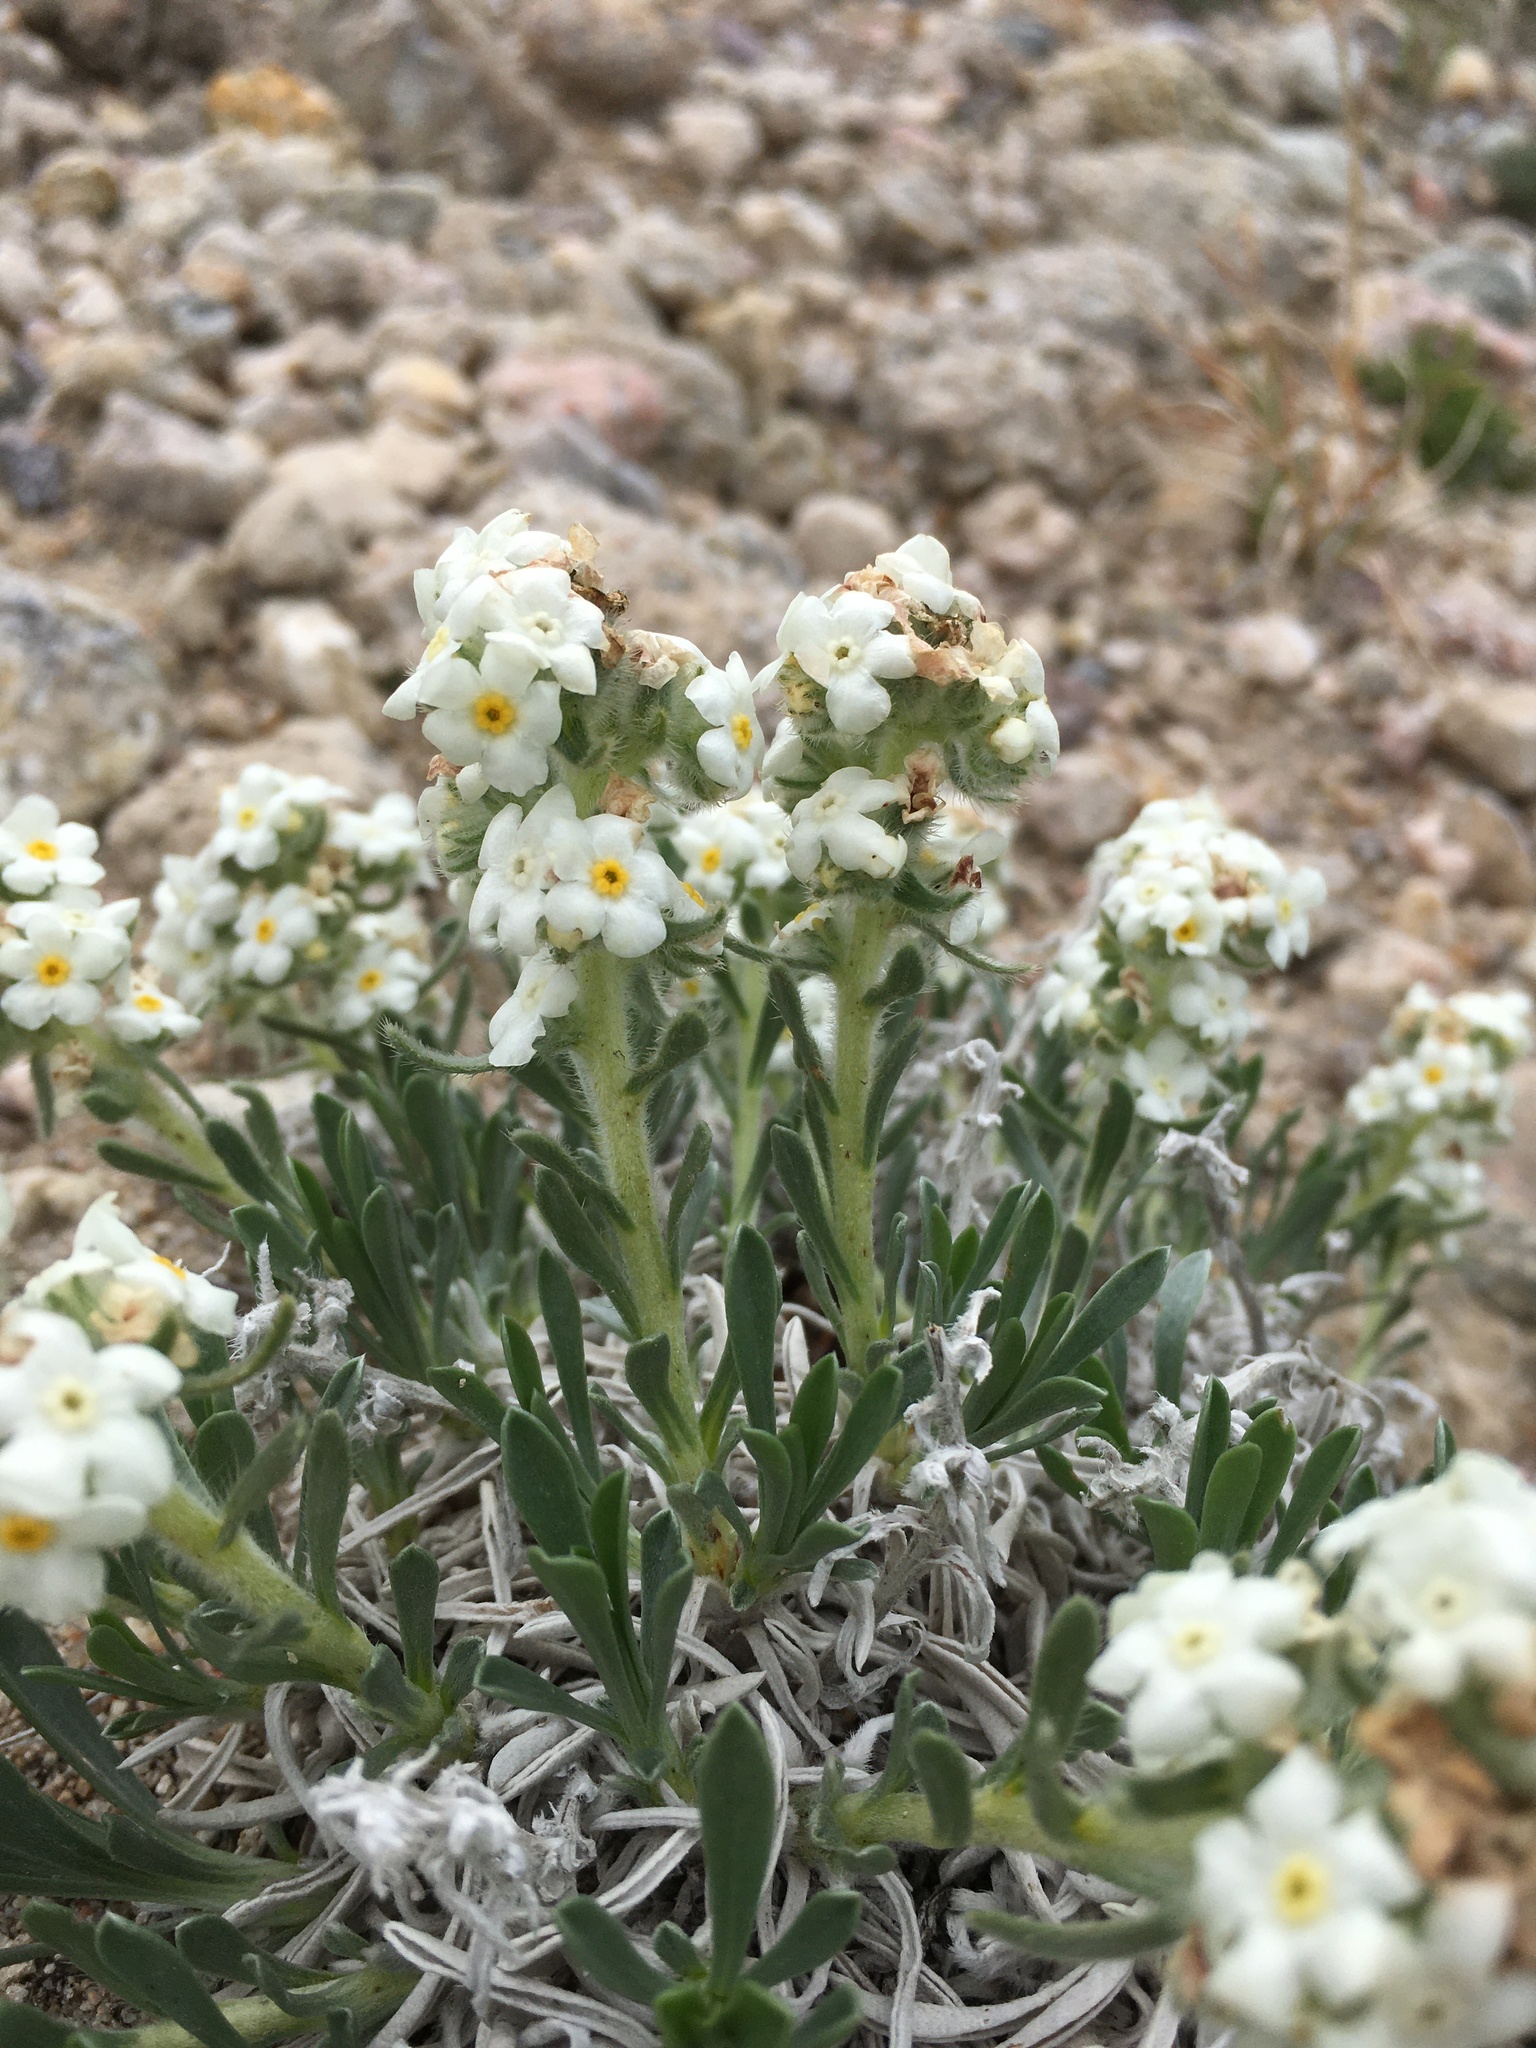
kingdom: Plantae
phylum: Tracheophyta
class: Magnoliopsida
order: Boraginales
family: Boraginaceae
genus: Oreocarya
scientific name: Oreocarya cana
